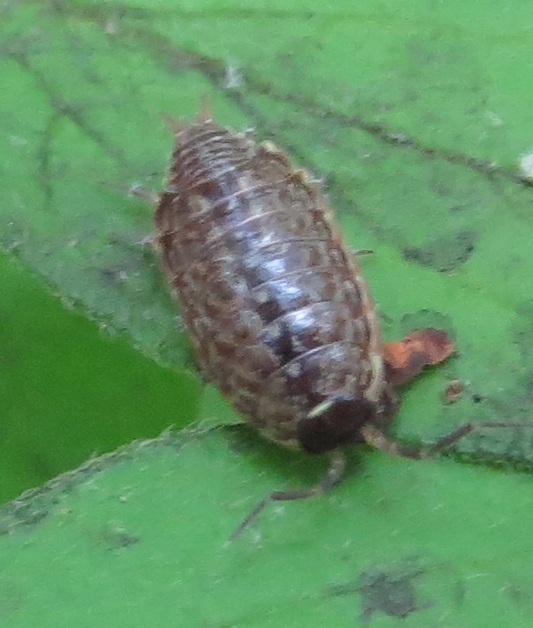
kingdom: Animalia
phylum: Arthropoda
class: Malacostraca
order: Isopoda
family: Philosciidae
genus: Philoscia
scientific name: Philoscia muscorum
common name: Common striped woodlouse
